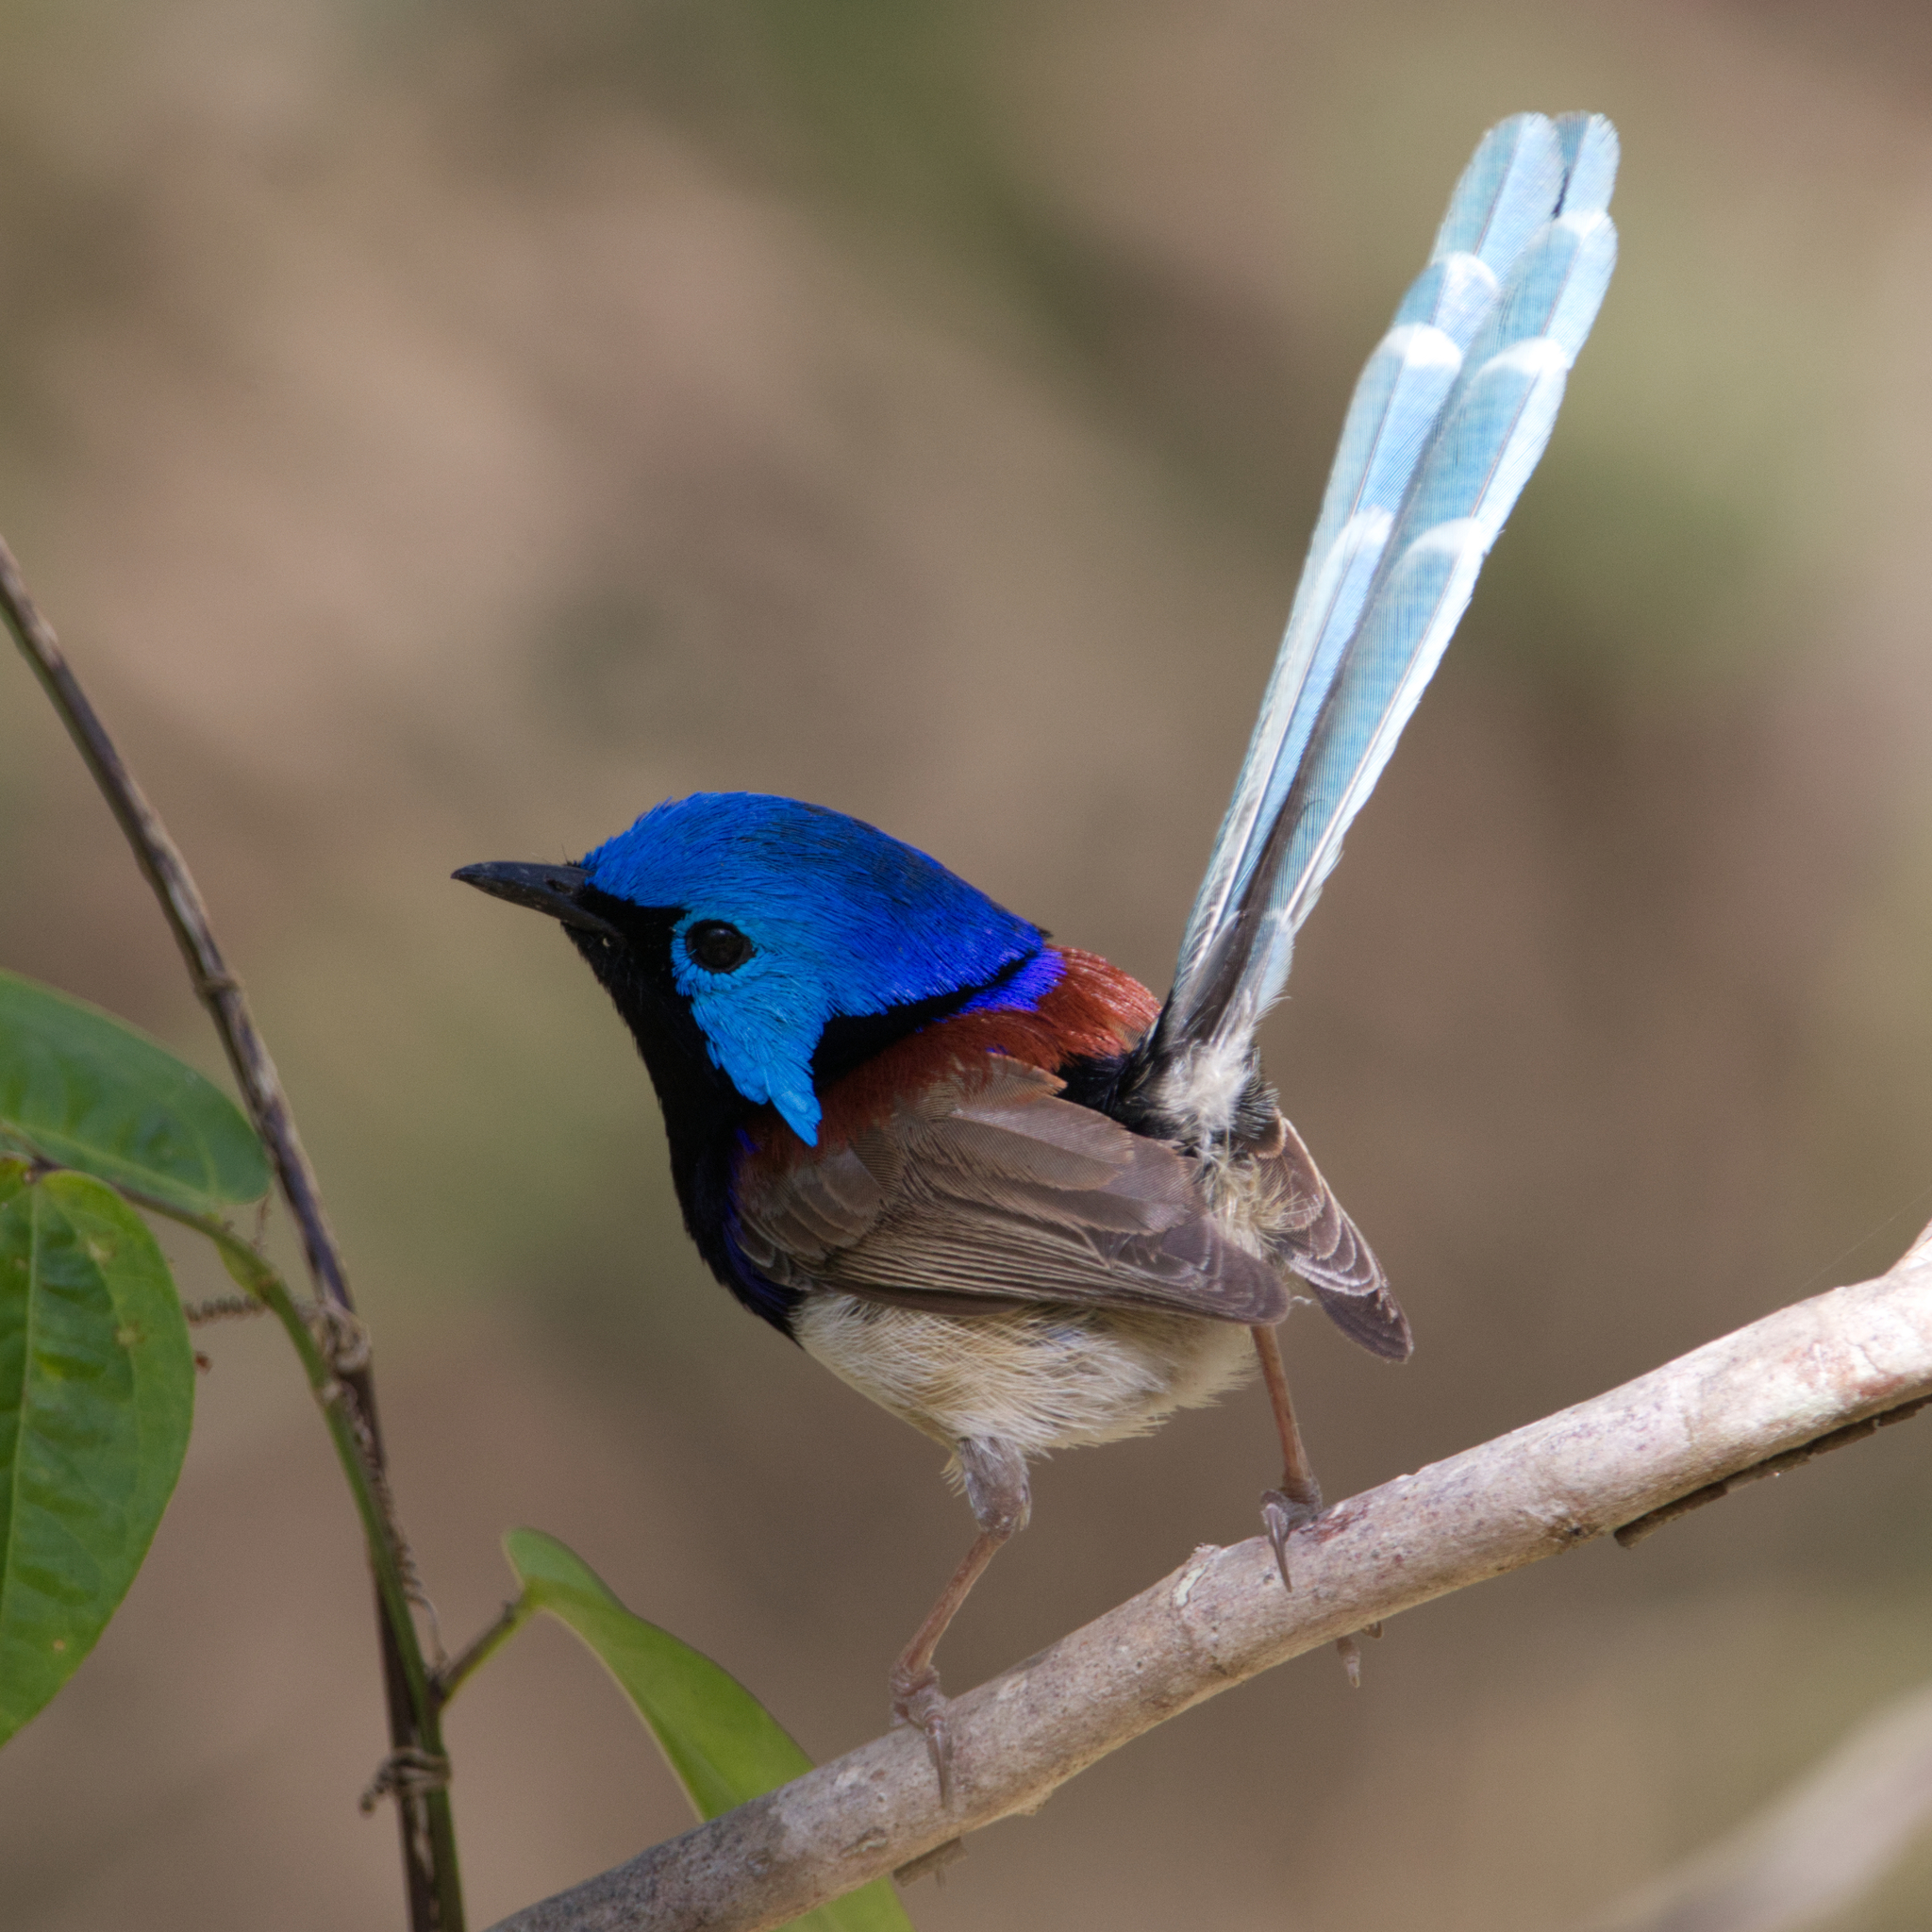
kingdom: Animalia
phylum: Chordata
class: Aves
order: Passeriformes
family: Maluridae
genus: Malurus
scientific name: Malurus lamberti
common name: Variegated fairywren
